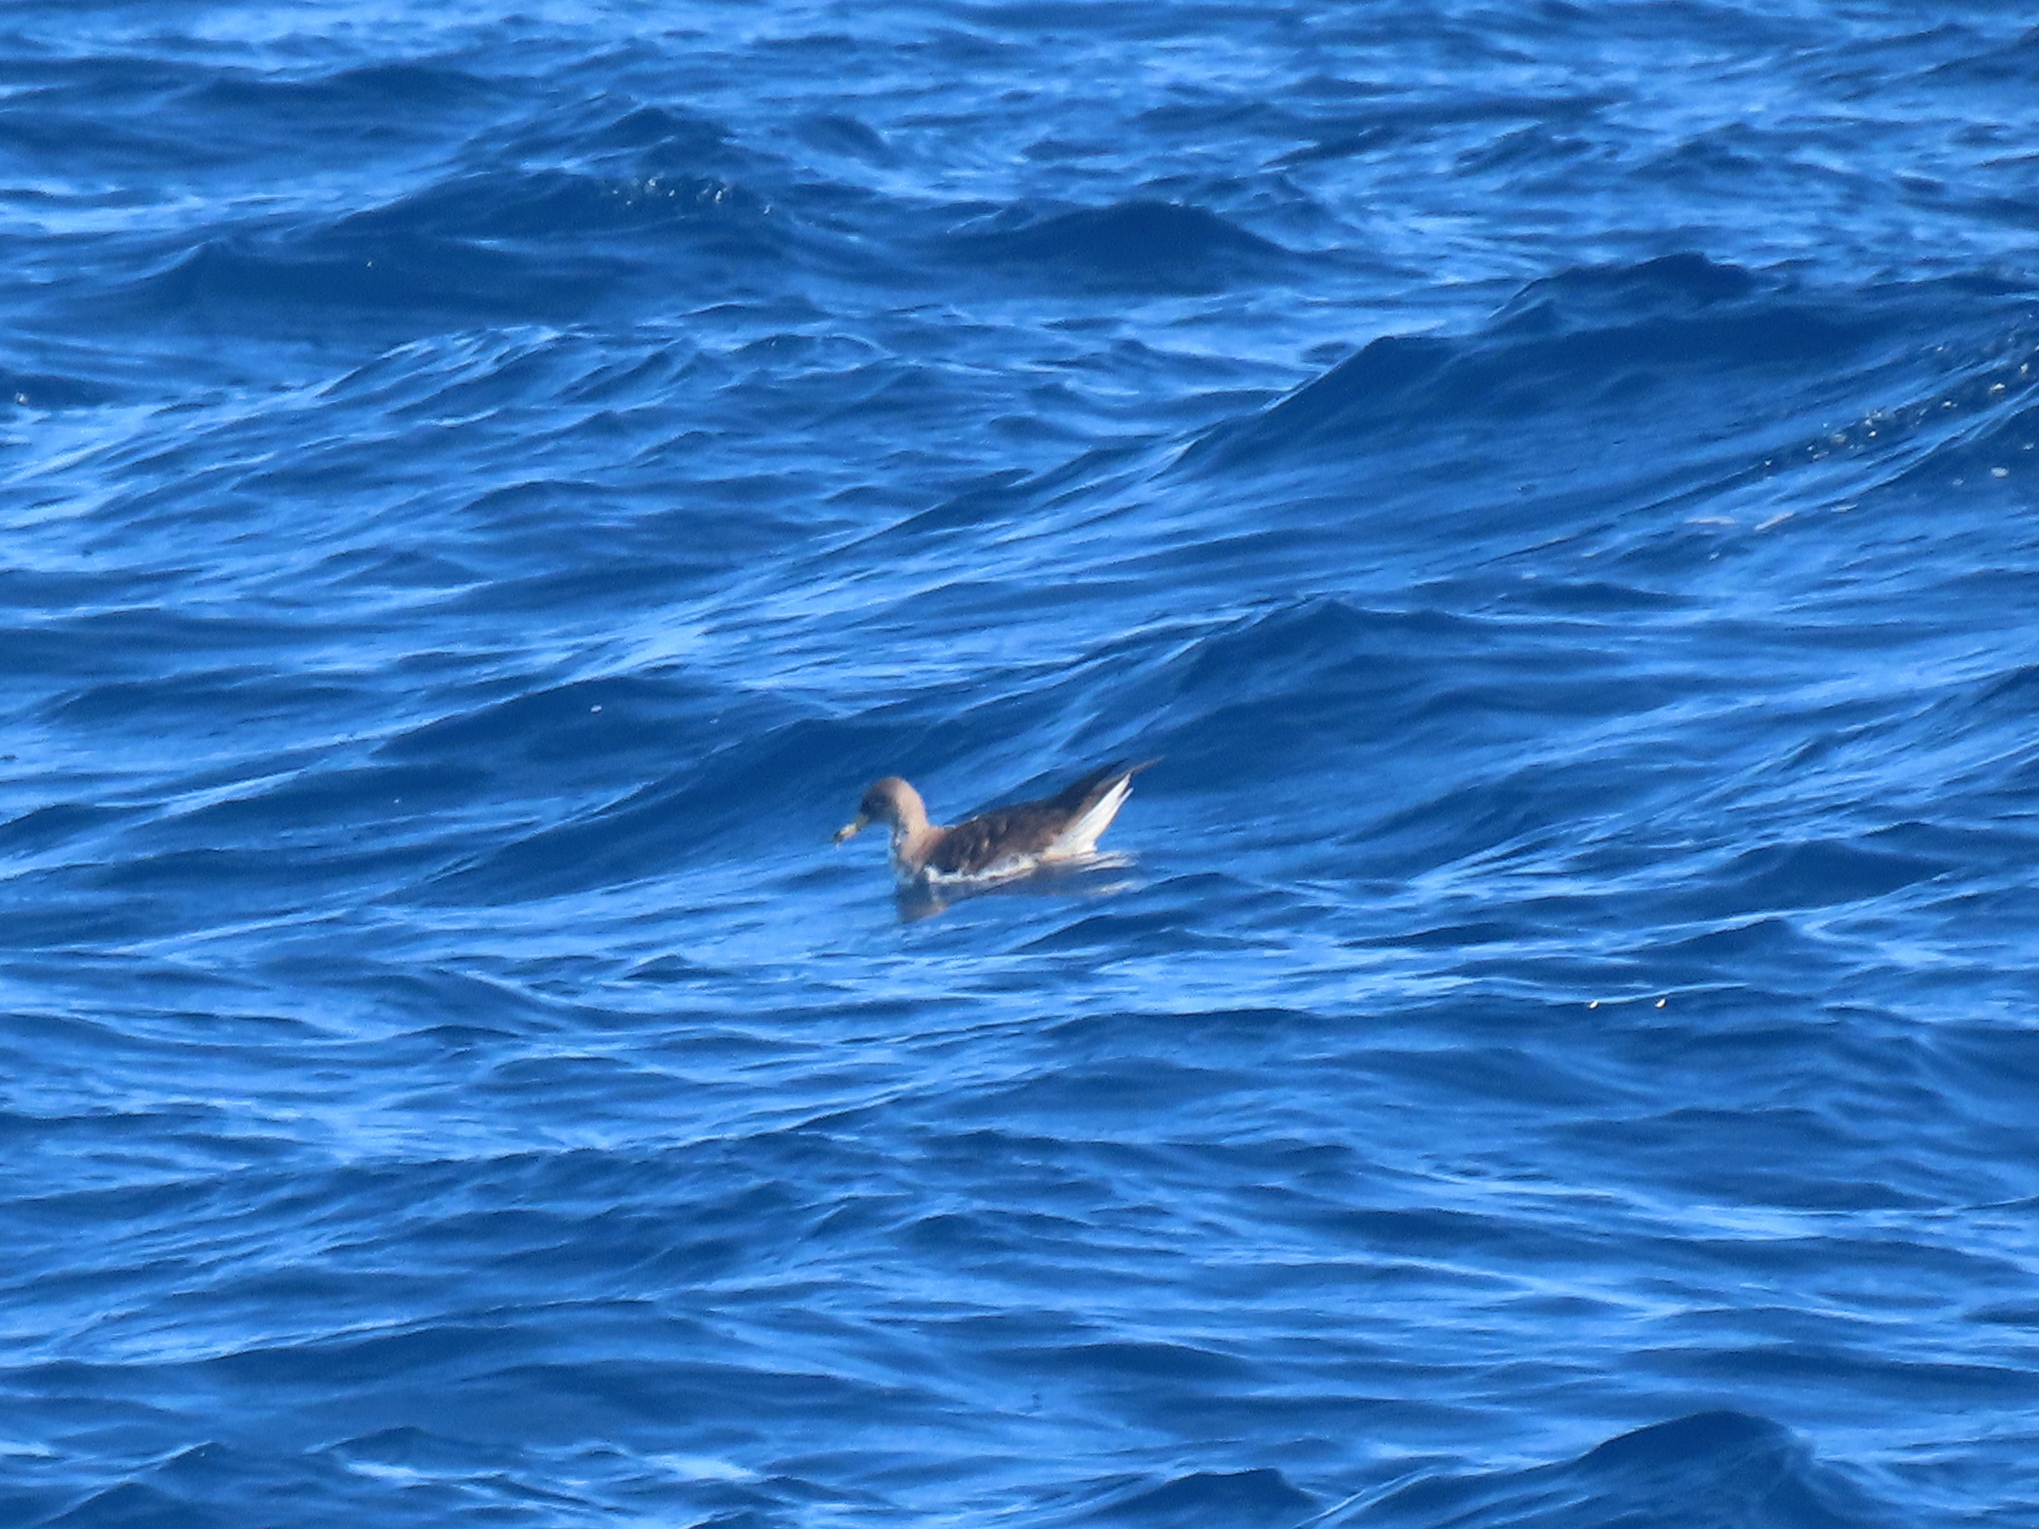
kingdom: Animalia
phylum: Chordata
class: Aves
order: Procellariiformes
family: Procellariidae
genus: Calonectris
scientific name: Calonectris diomedea
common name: Cory's shearwater
